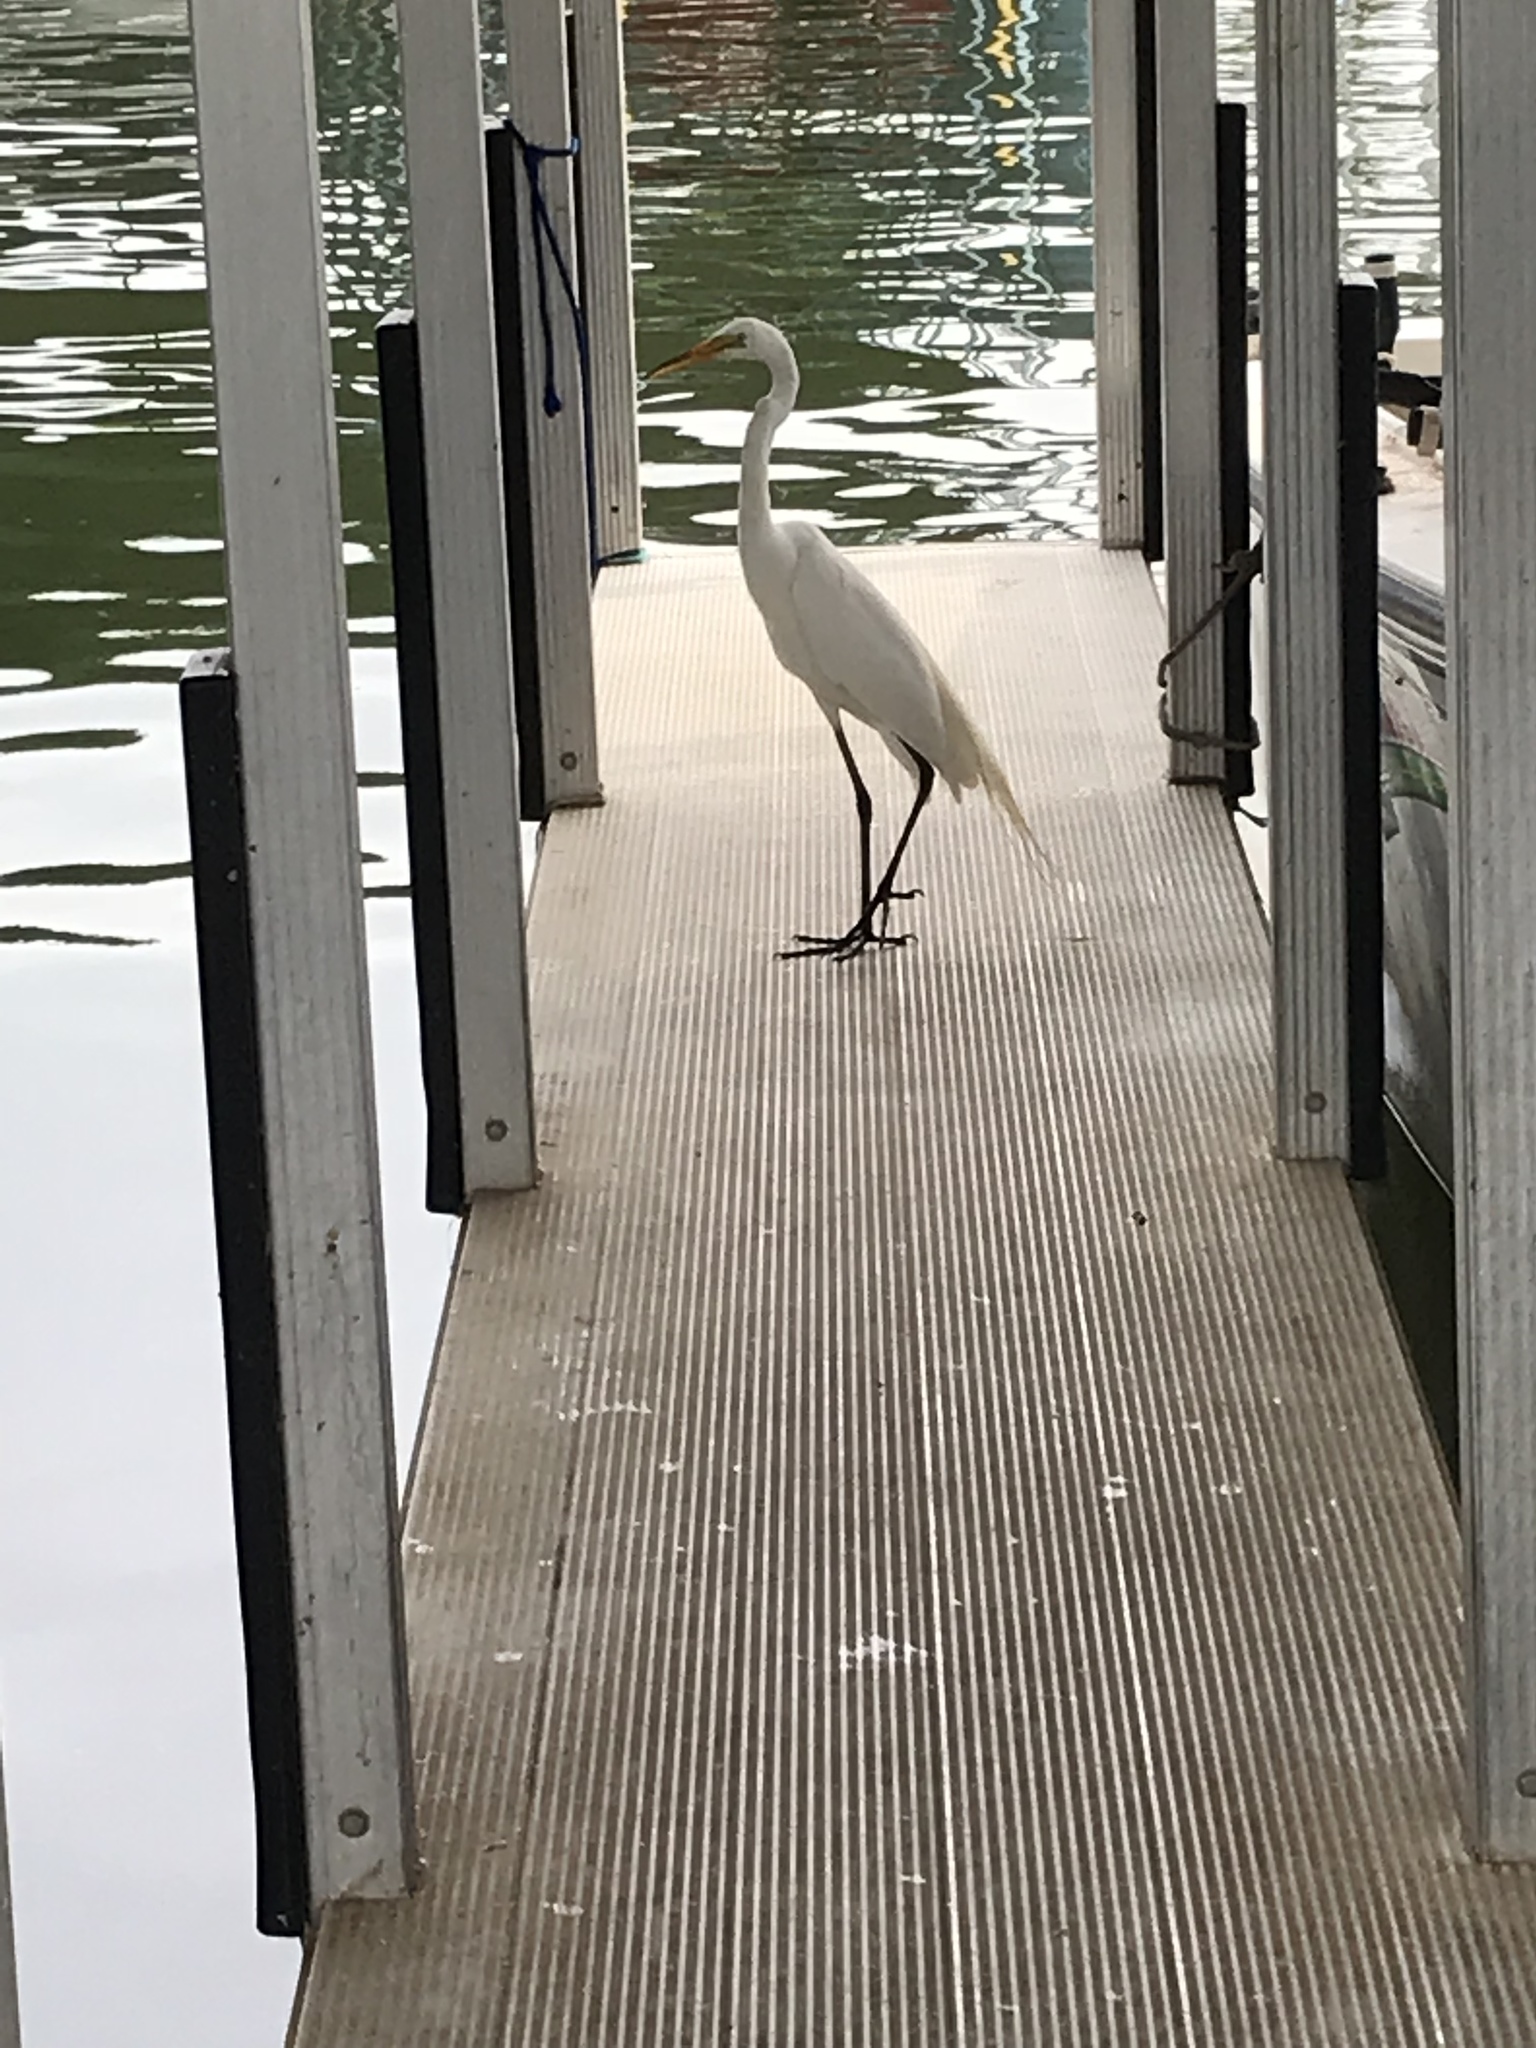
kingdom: Animalia
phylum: Chordata
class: Aves
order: Pelecaniformes
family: Ardeidae
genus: Ardea
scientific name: Ardea alba
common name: Great egret
